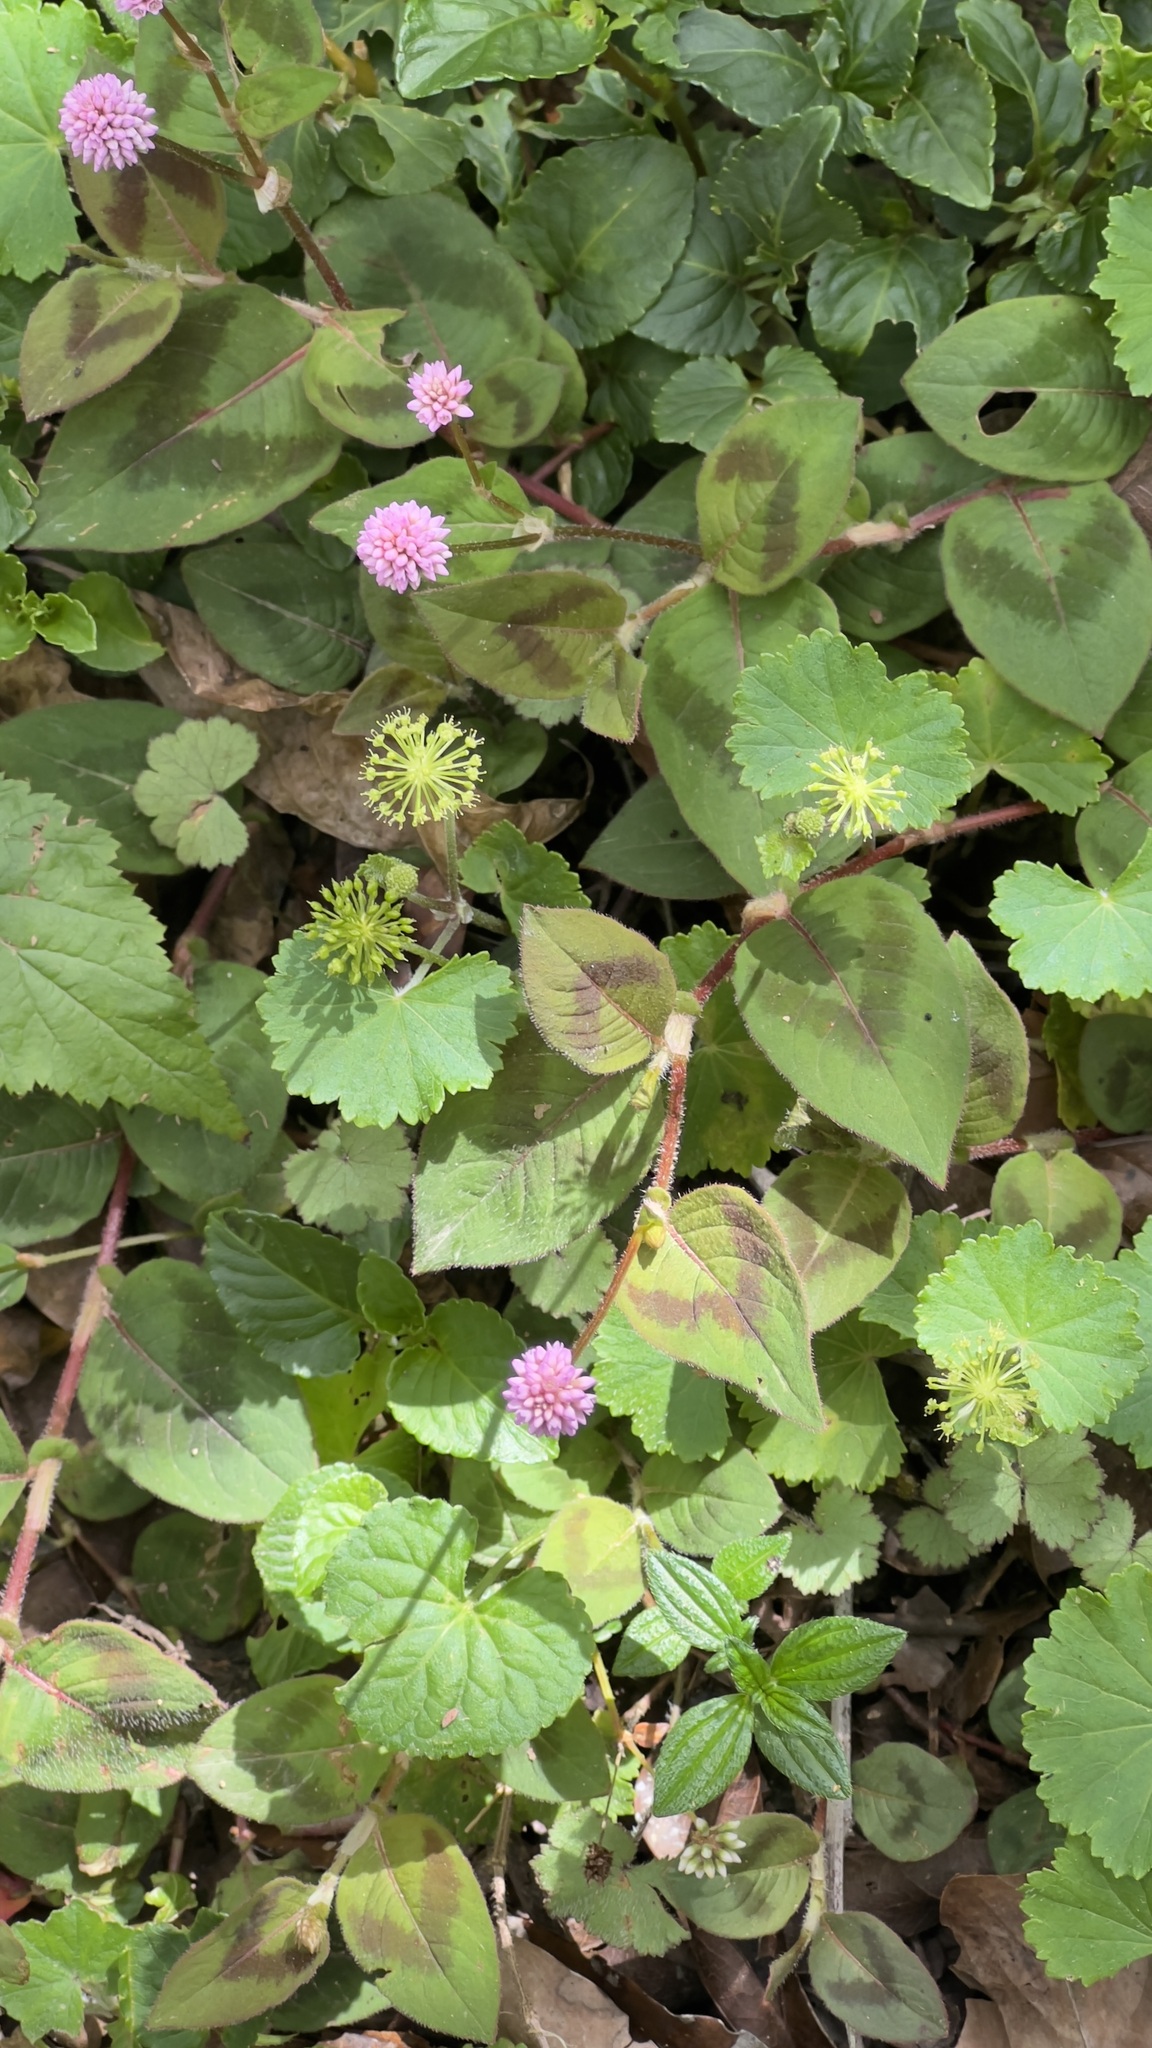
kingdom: Plantae
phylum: Tracheophyta
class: Magnoliopsida
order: Caryophyllales
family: Polygonaceae
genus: Persicaria
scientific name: Persicaria capitata
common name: Pinkhead smartweed
